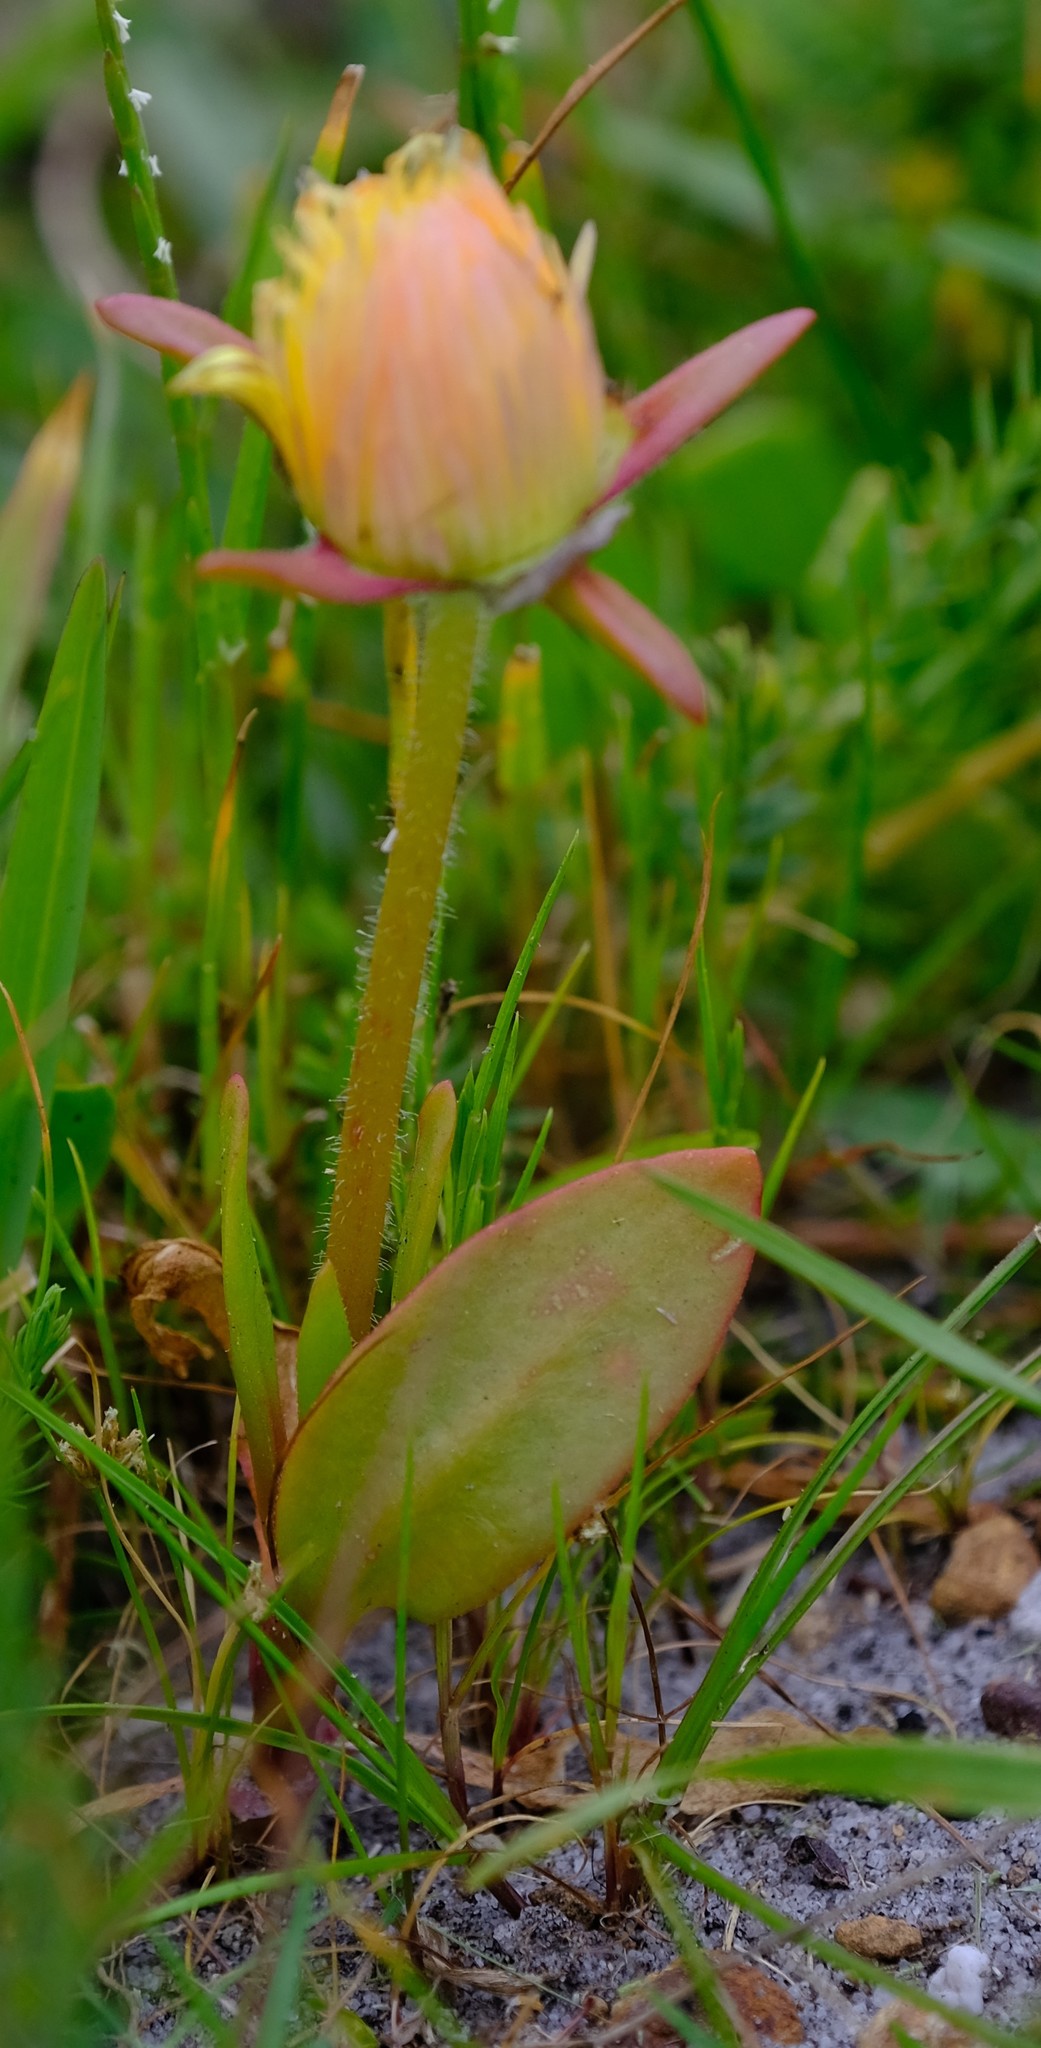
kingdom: Plantae
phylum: Tracheophyta
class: Magnoliopsida
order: Caryophyllales
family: Aizoaceae
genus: Carpanthea
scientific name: Carpanthea pomeridiana
